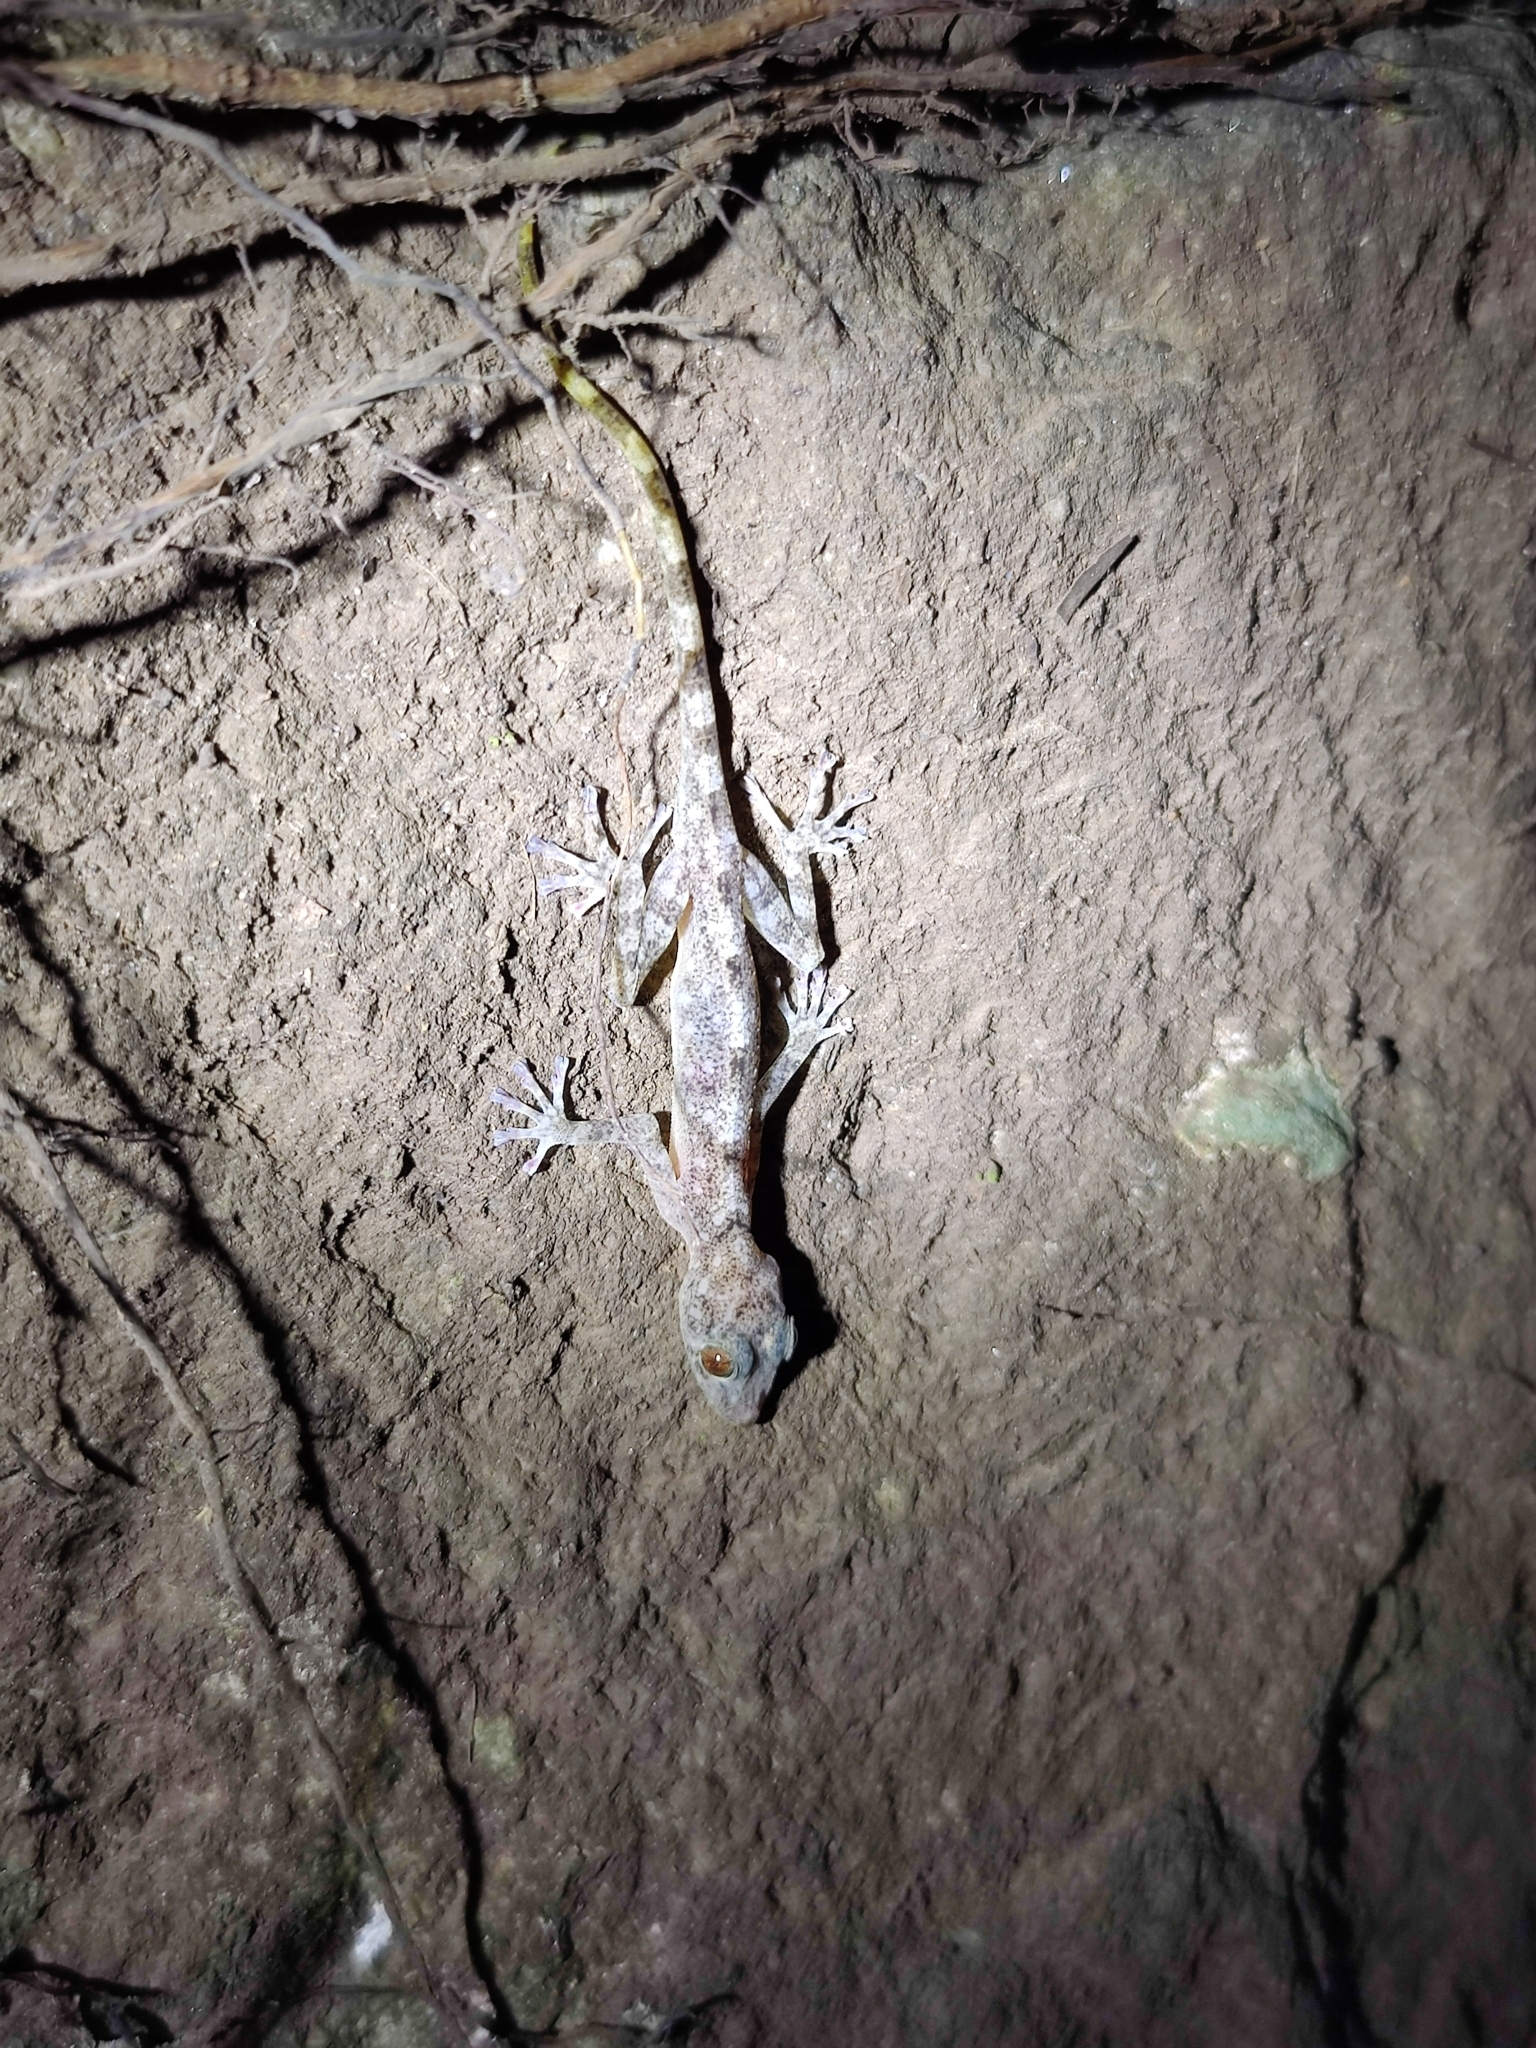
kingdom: Animalia
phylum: Chordata
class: Squamata
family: Gekkonidae
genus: Calodactylodes
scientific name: Calodactylodes aureus
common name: Indian golden gecko
